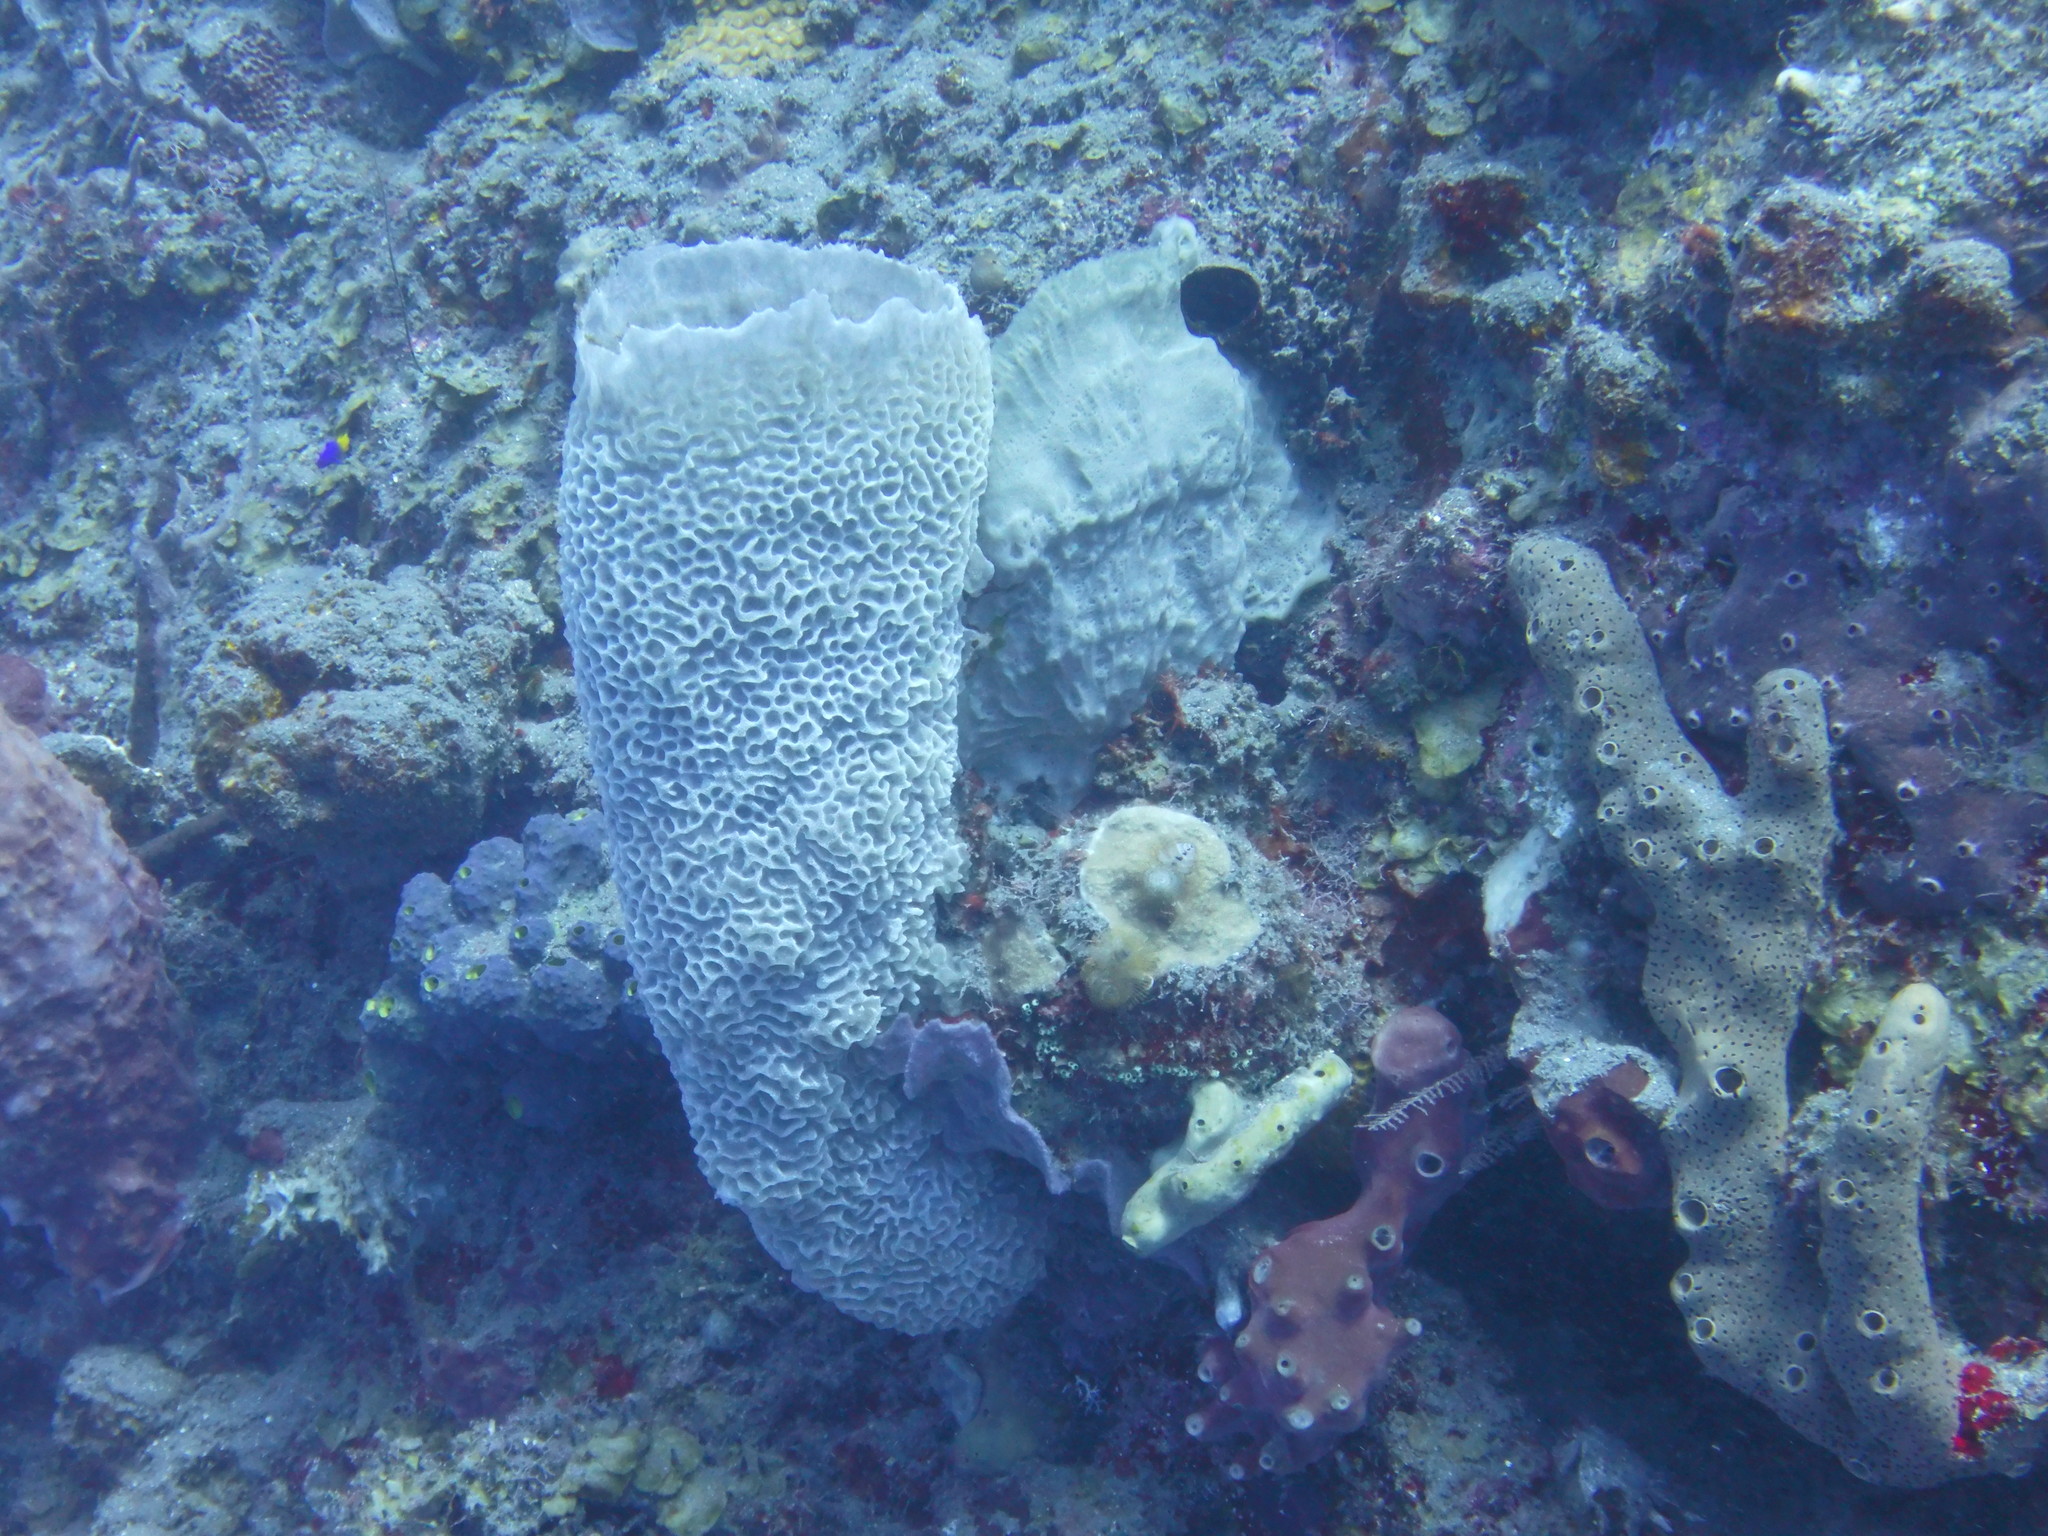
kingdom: Animalia
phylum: Porifera
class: Demospongiae
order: Haplosclerida
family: Callyspongiidae
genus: Callyspongia
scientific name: Callyspongia plicifera
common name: Azure vase sponge
